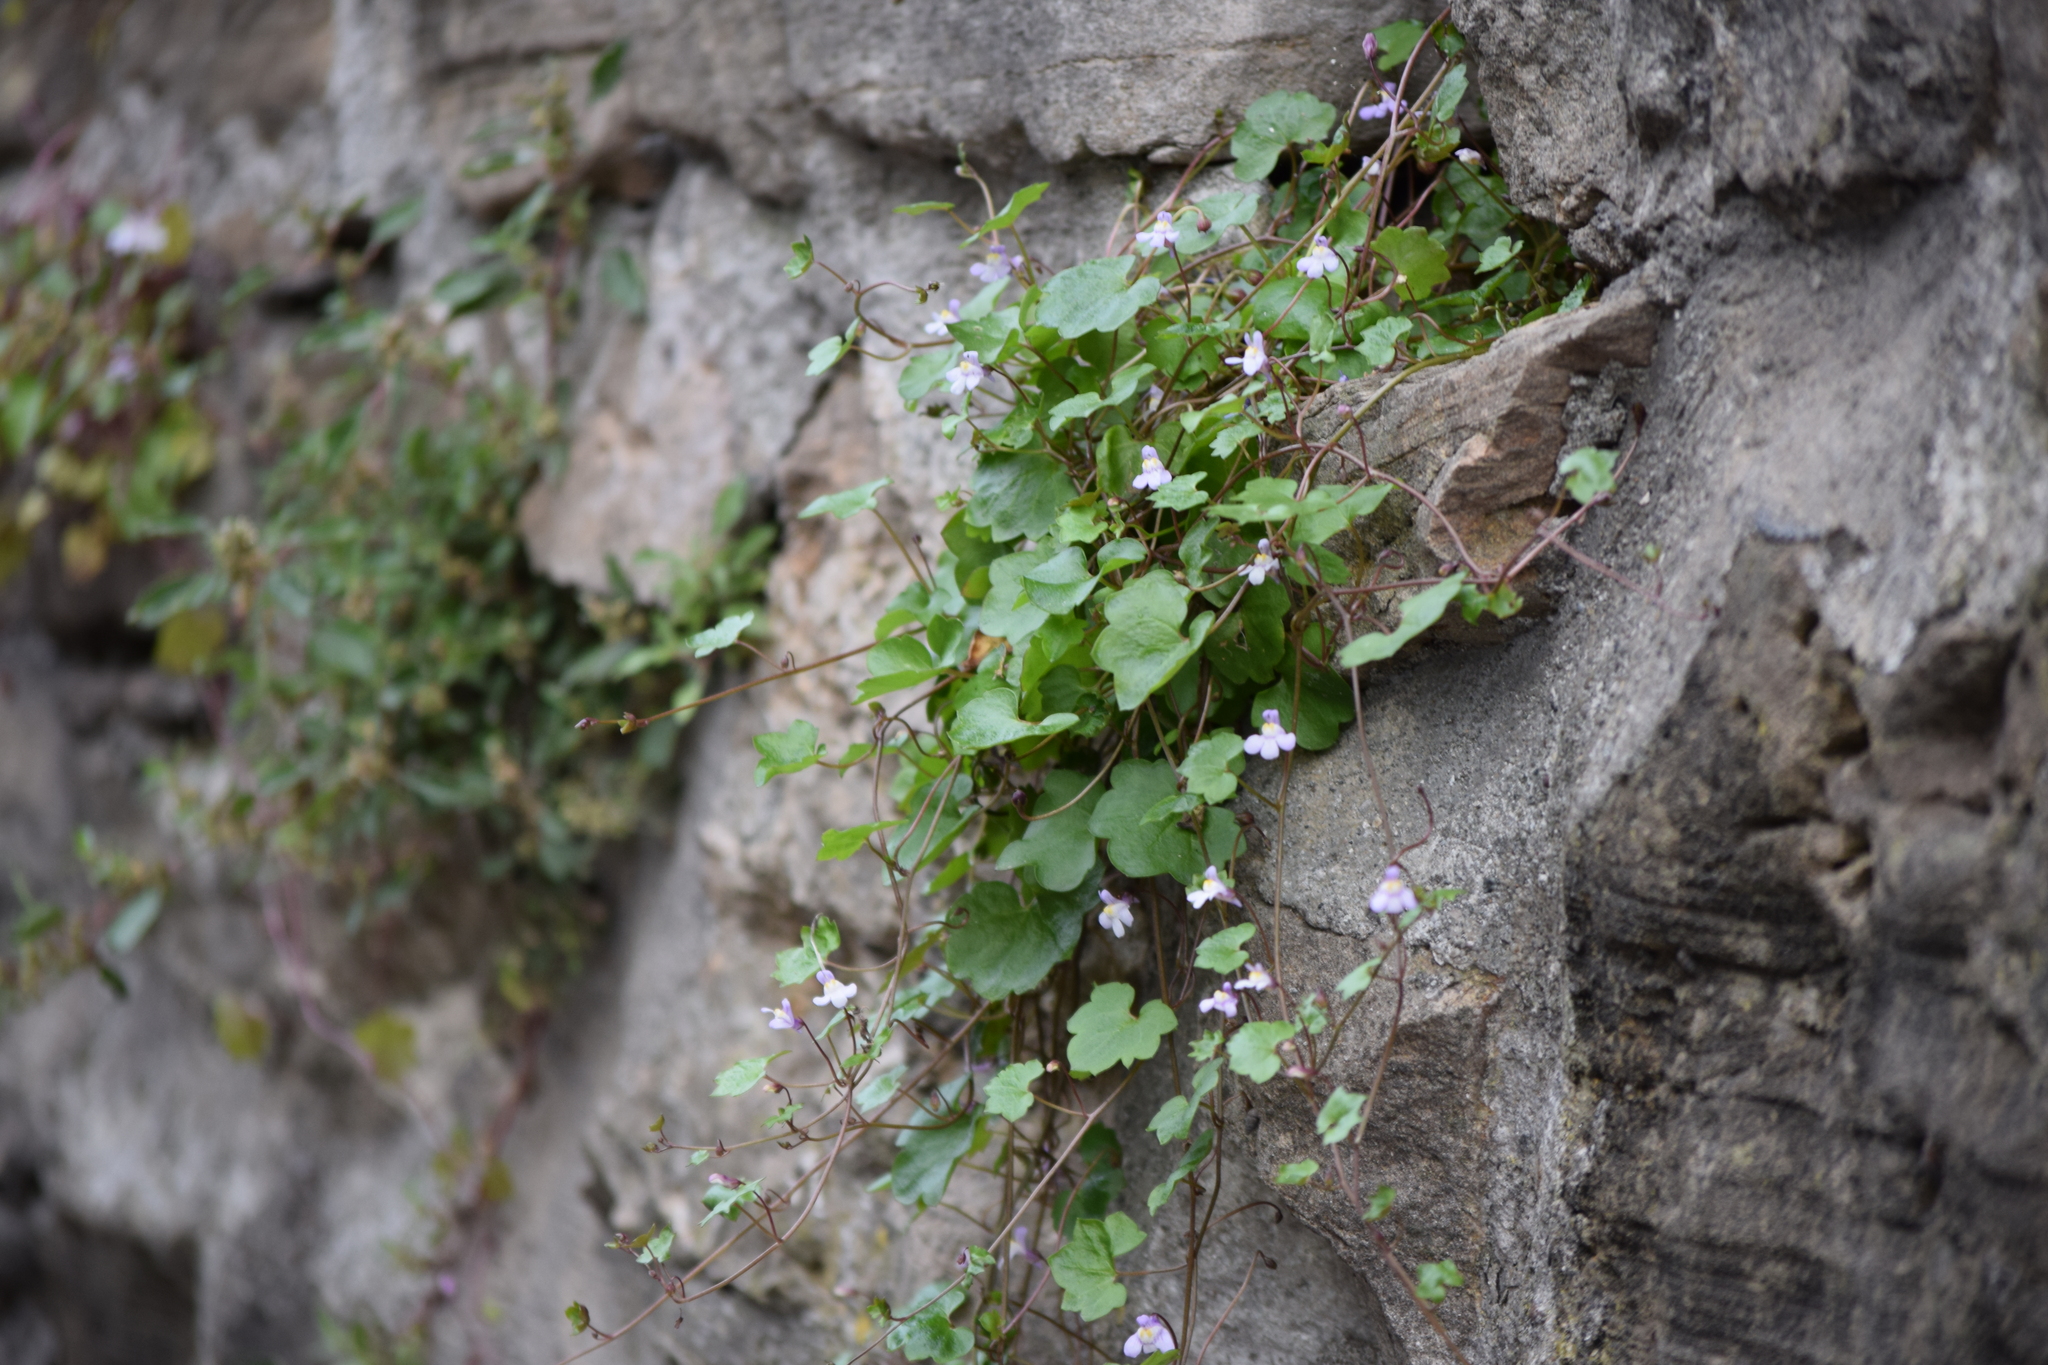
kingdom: Plantae
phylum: Tracheophyta
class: Magnoliopsida
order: Lamiales
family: Plantaginaceae
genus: Cymbalaria
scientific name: Cymbalaria muralis
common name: Ivy-leaved toadflax
